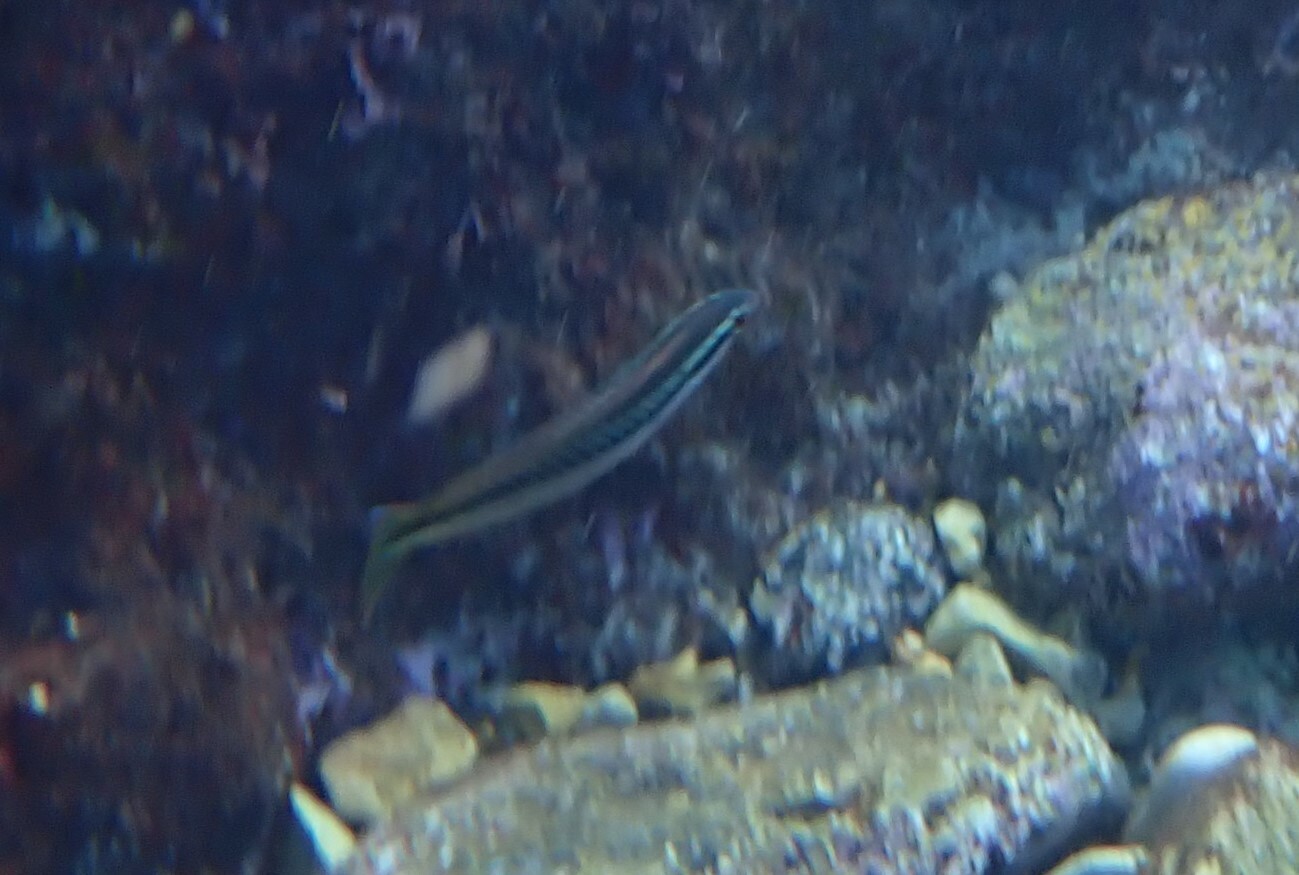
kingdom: Animalia
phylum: Chordata
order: Perciformes
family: Labridae
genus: Coris
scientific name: Coris julis
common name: Rainbow wrasse
